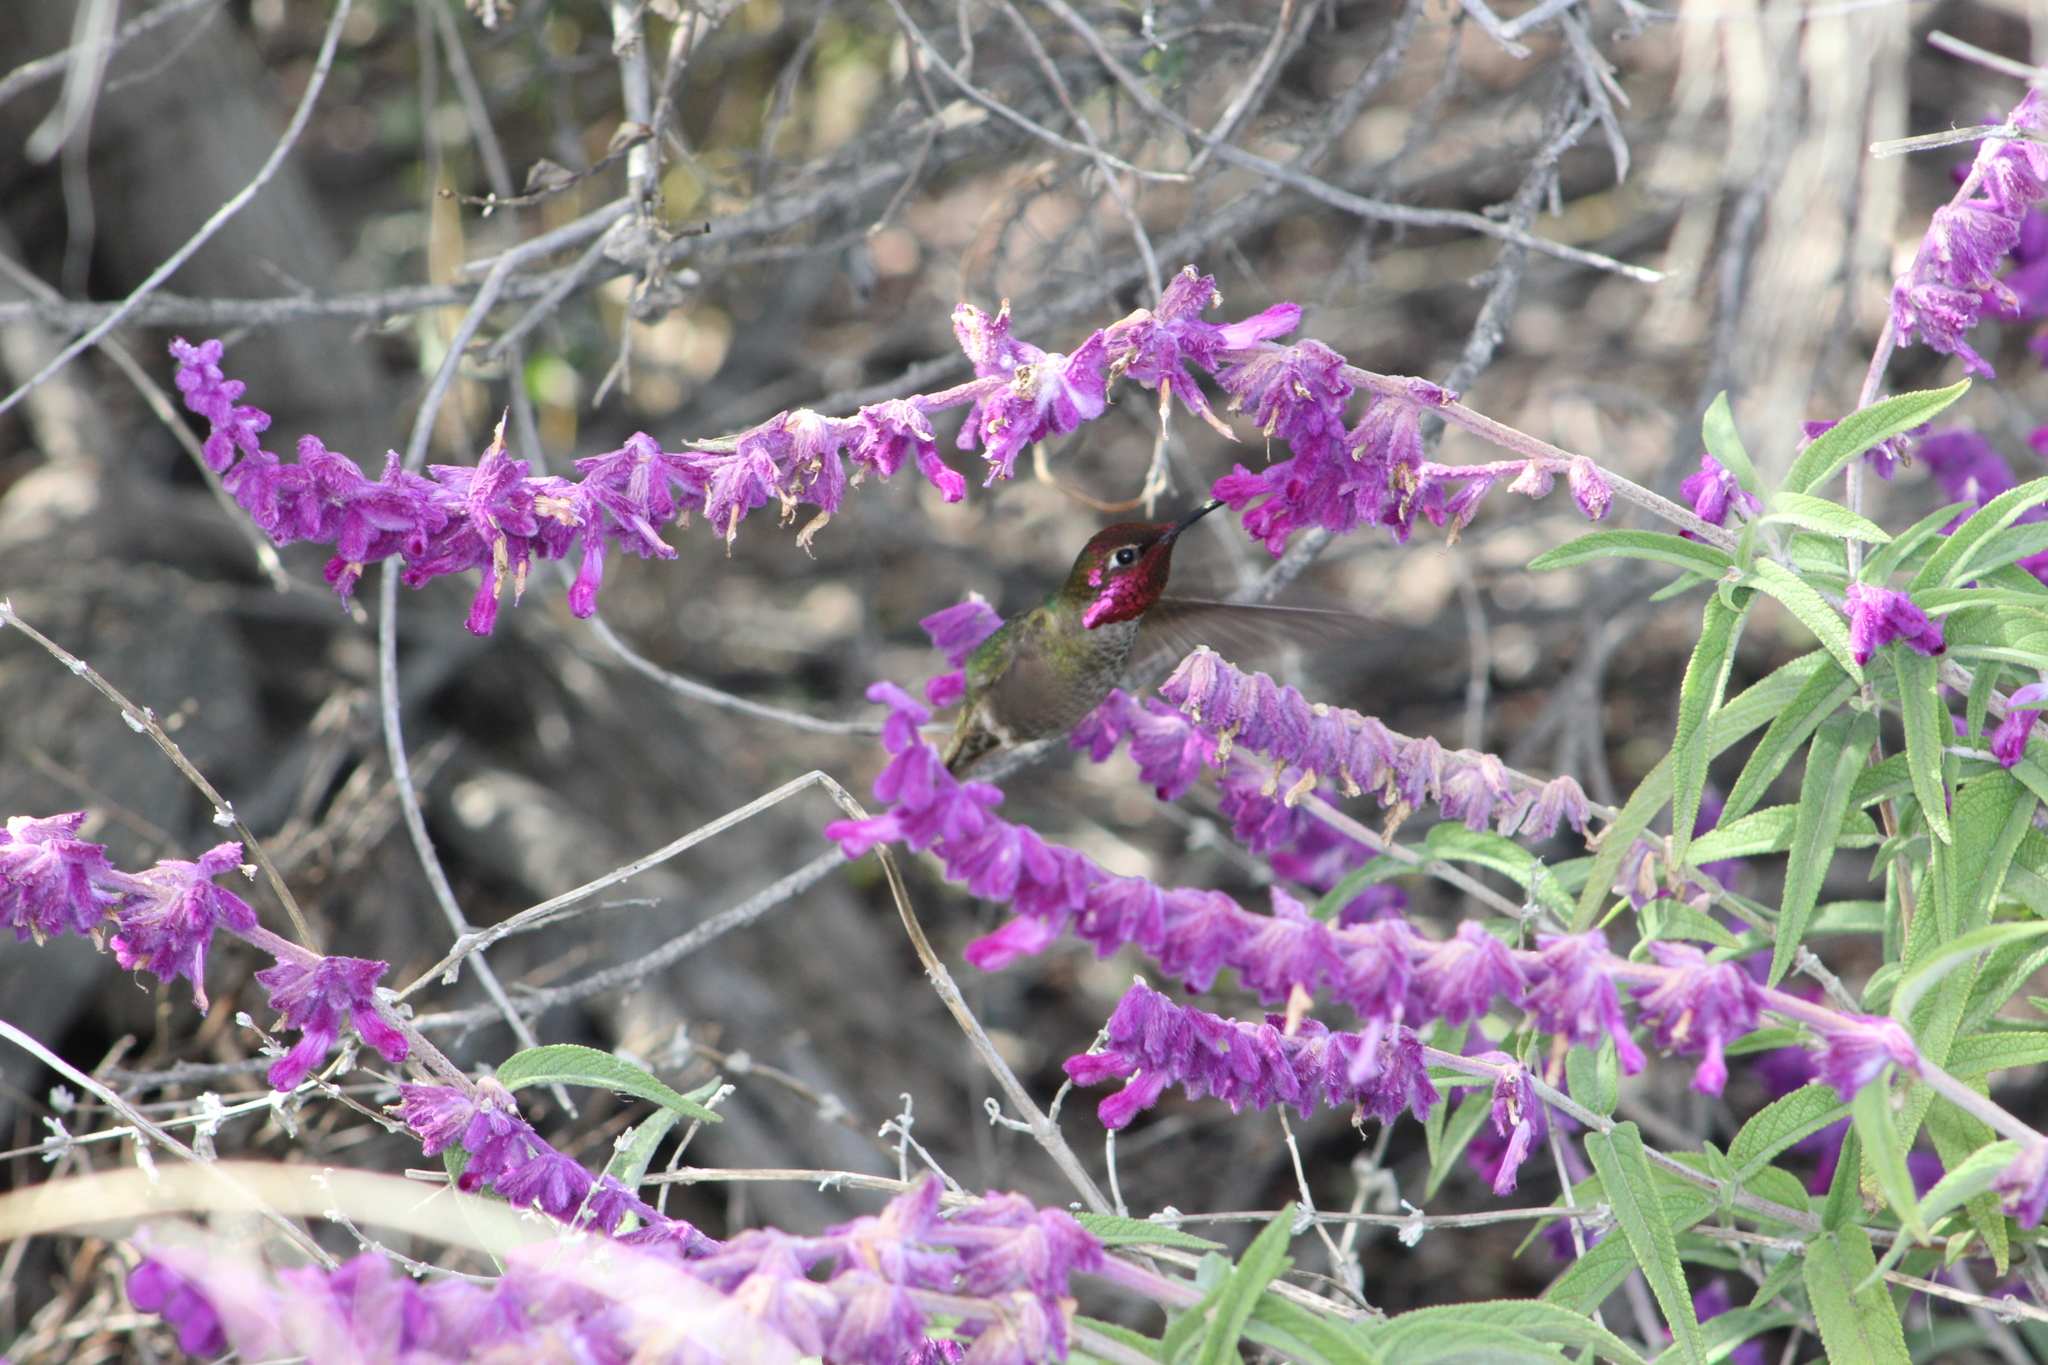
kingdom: Animalia
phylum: Chordata
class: Aves
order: Apodiformes
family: Trochilidae
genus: Calypte
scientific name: Calypte anna
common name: Anna's hummingbird
